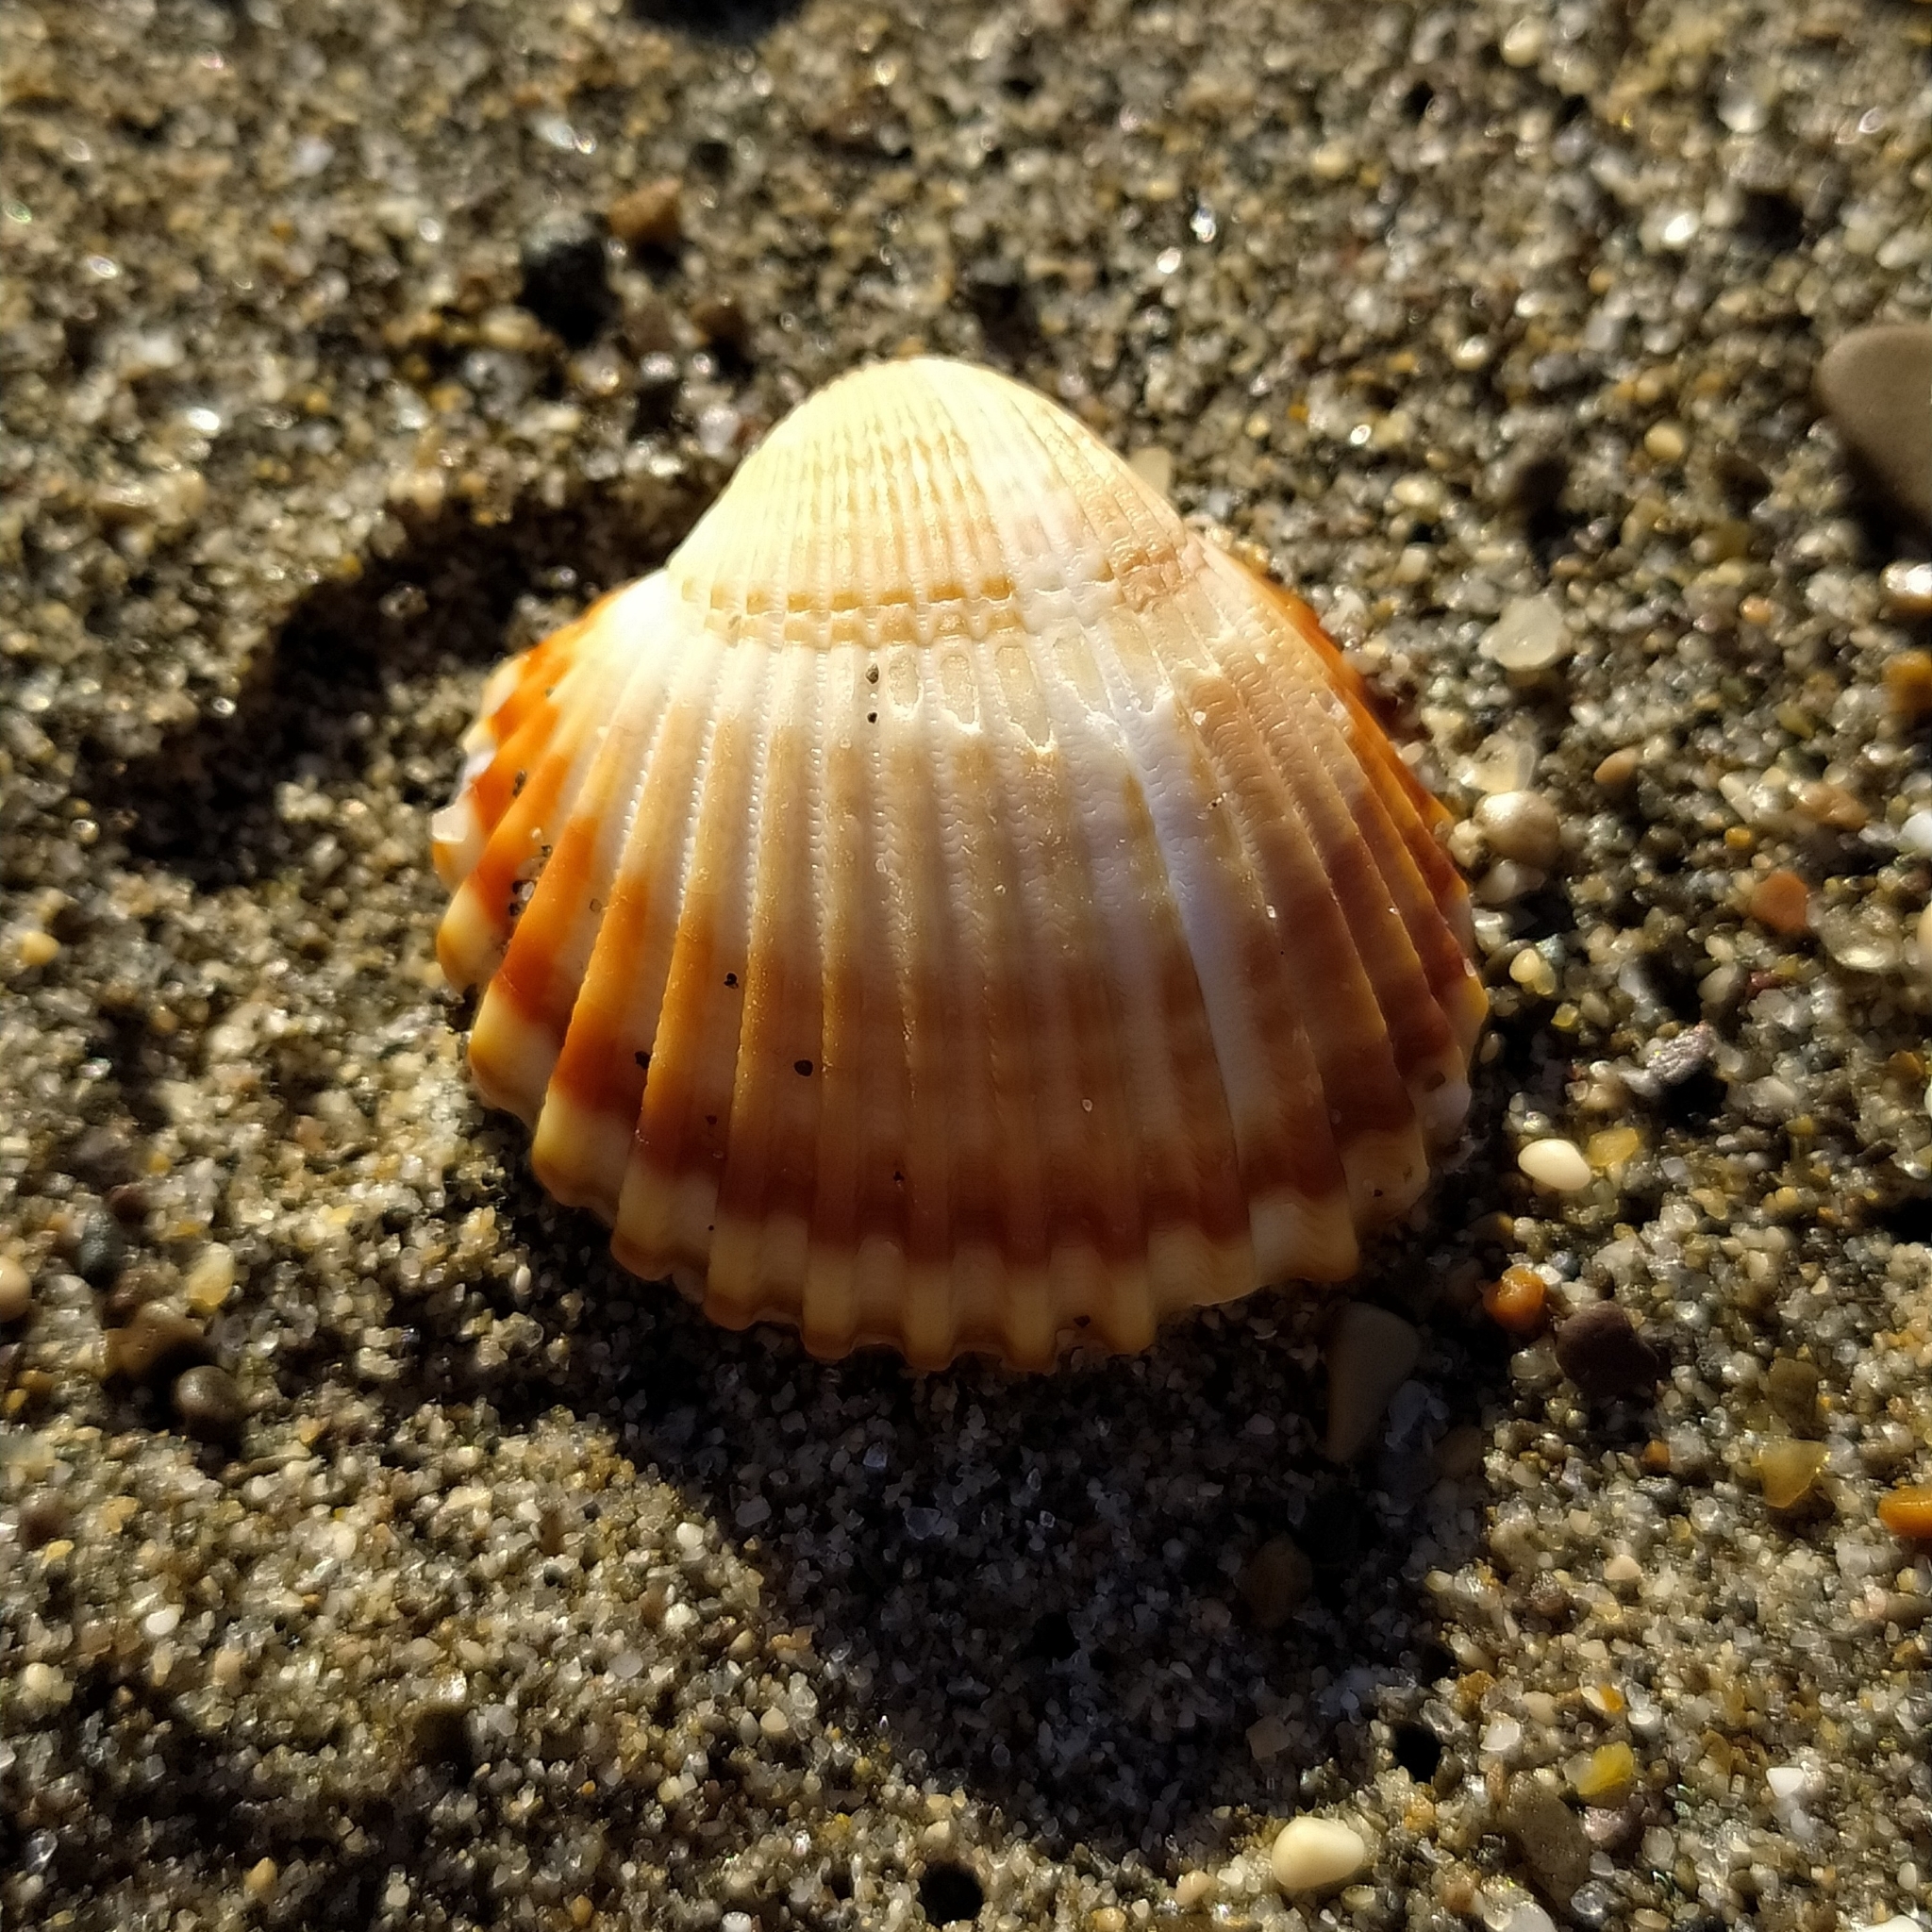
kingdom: Animalia
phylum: Mollusca
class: Bivalvia
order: Cardiida
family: Cardiidae
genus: Acanthocardia
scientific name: Acanthocardia tuberculata
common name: Rough cockle
